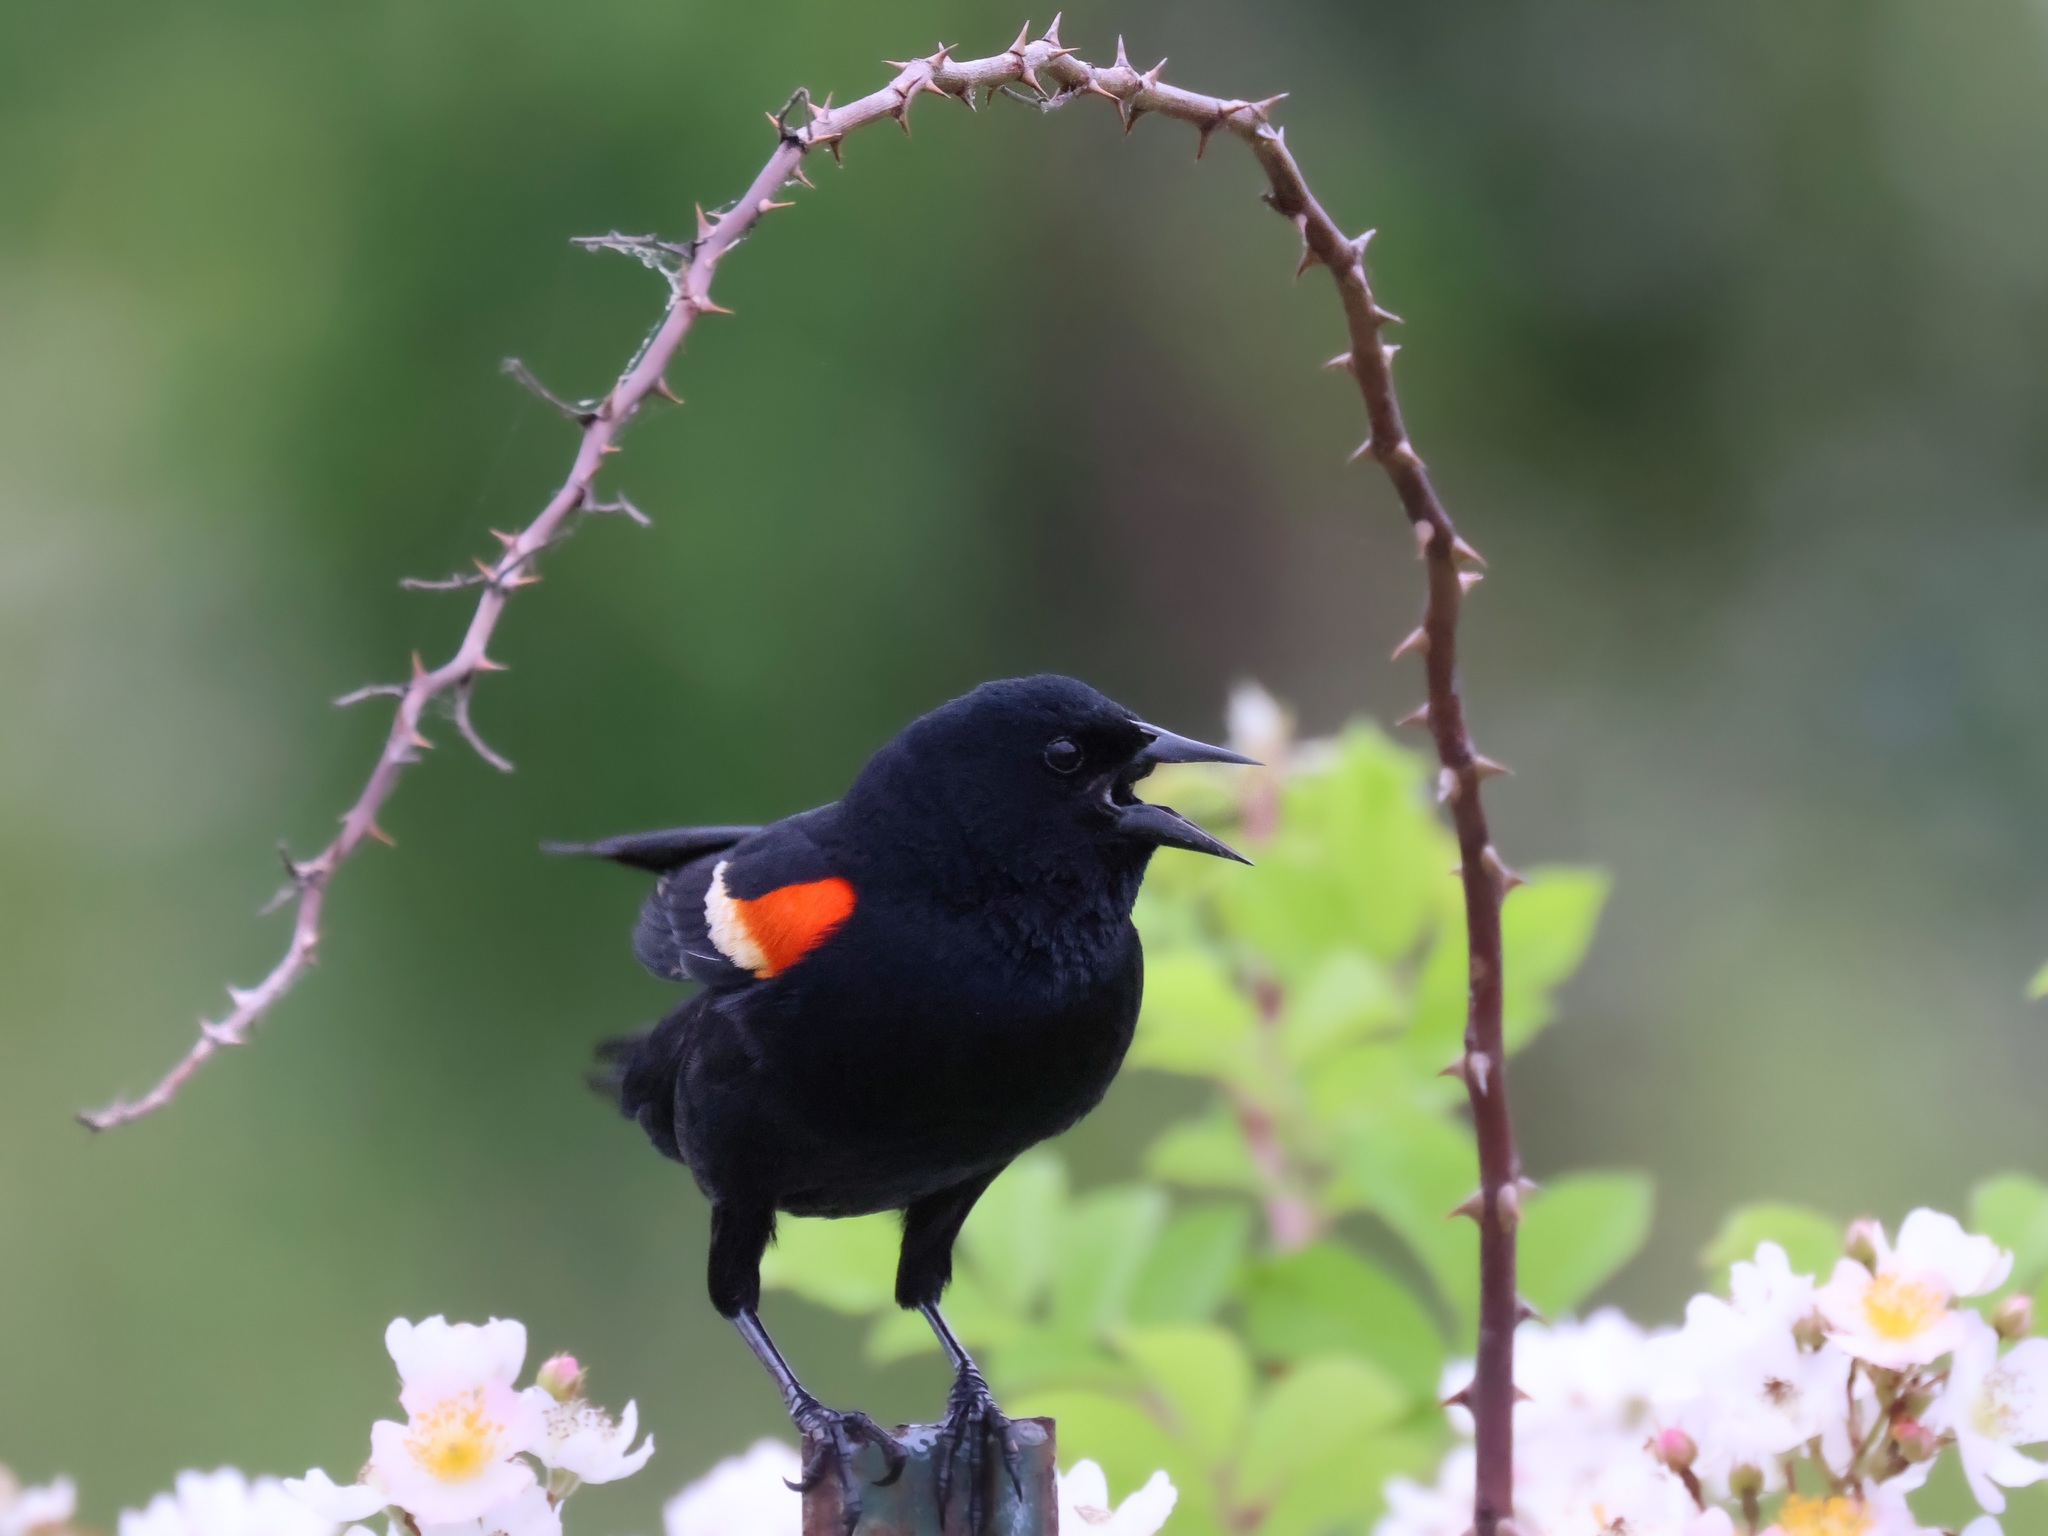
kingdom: Animalia
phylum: Chordata
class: Aves
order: Passeriformes
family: Icteridae
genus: Agelaius
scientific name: Agelaius phoeniceus
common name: Red-winged blackbird
